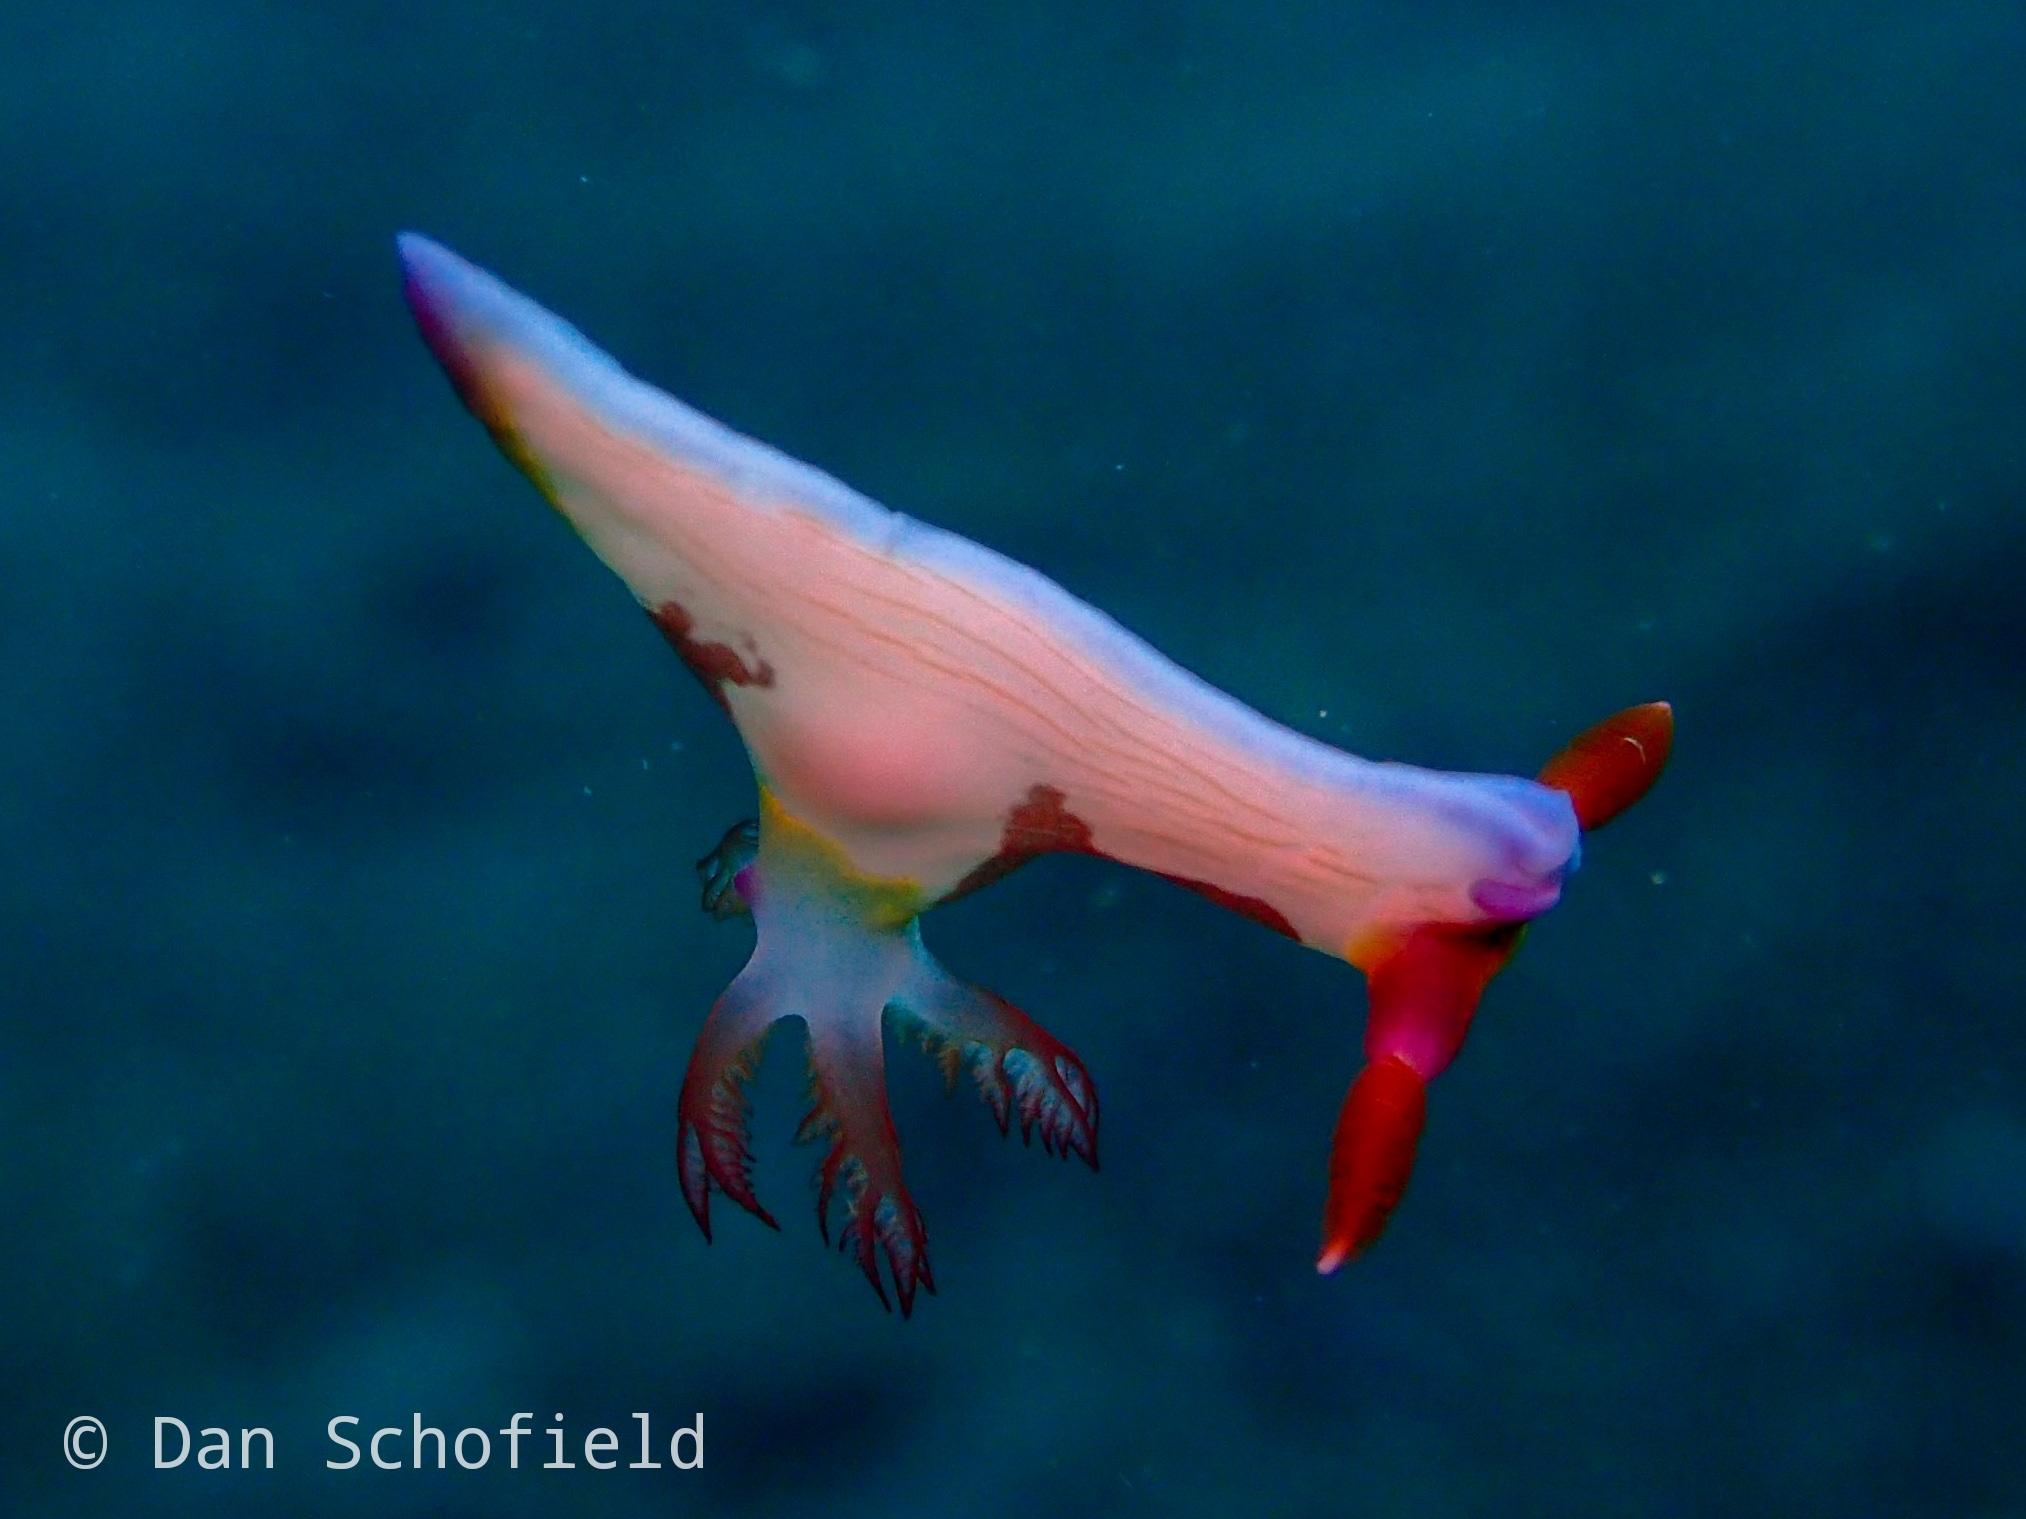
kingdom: Animalia
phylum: Mollusca
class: Gastropoda
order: Nudibranchia
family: Polyceridae
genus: Nembrotha
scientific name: Nembrotha chamberlaini
